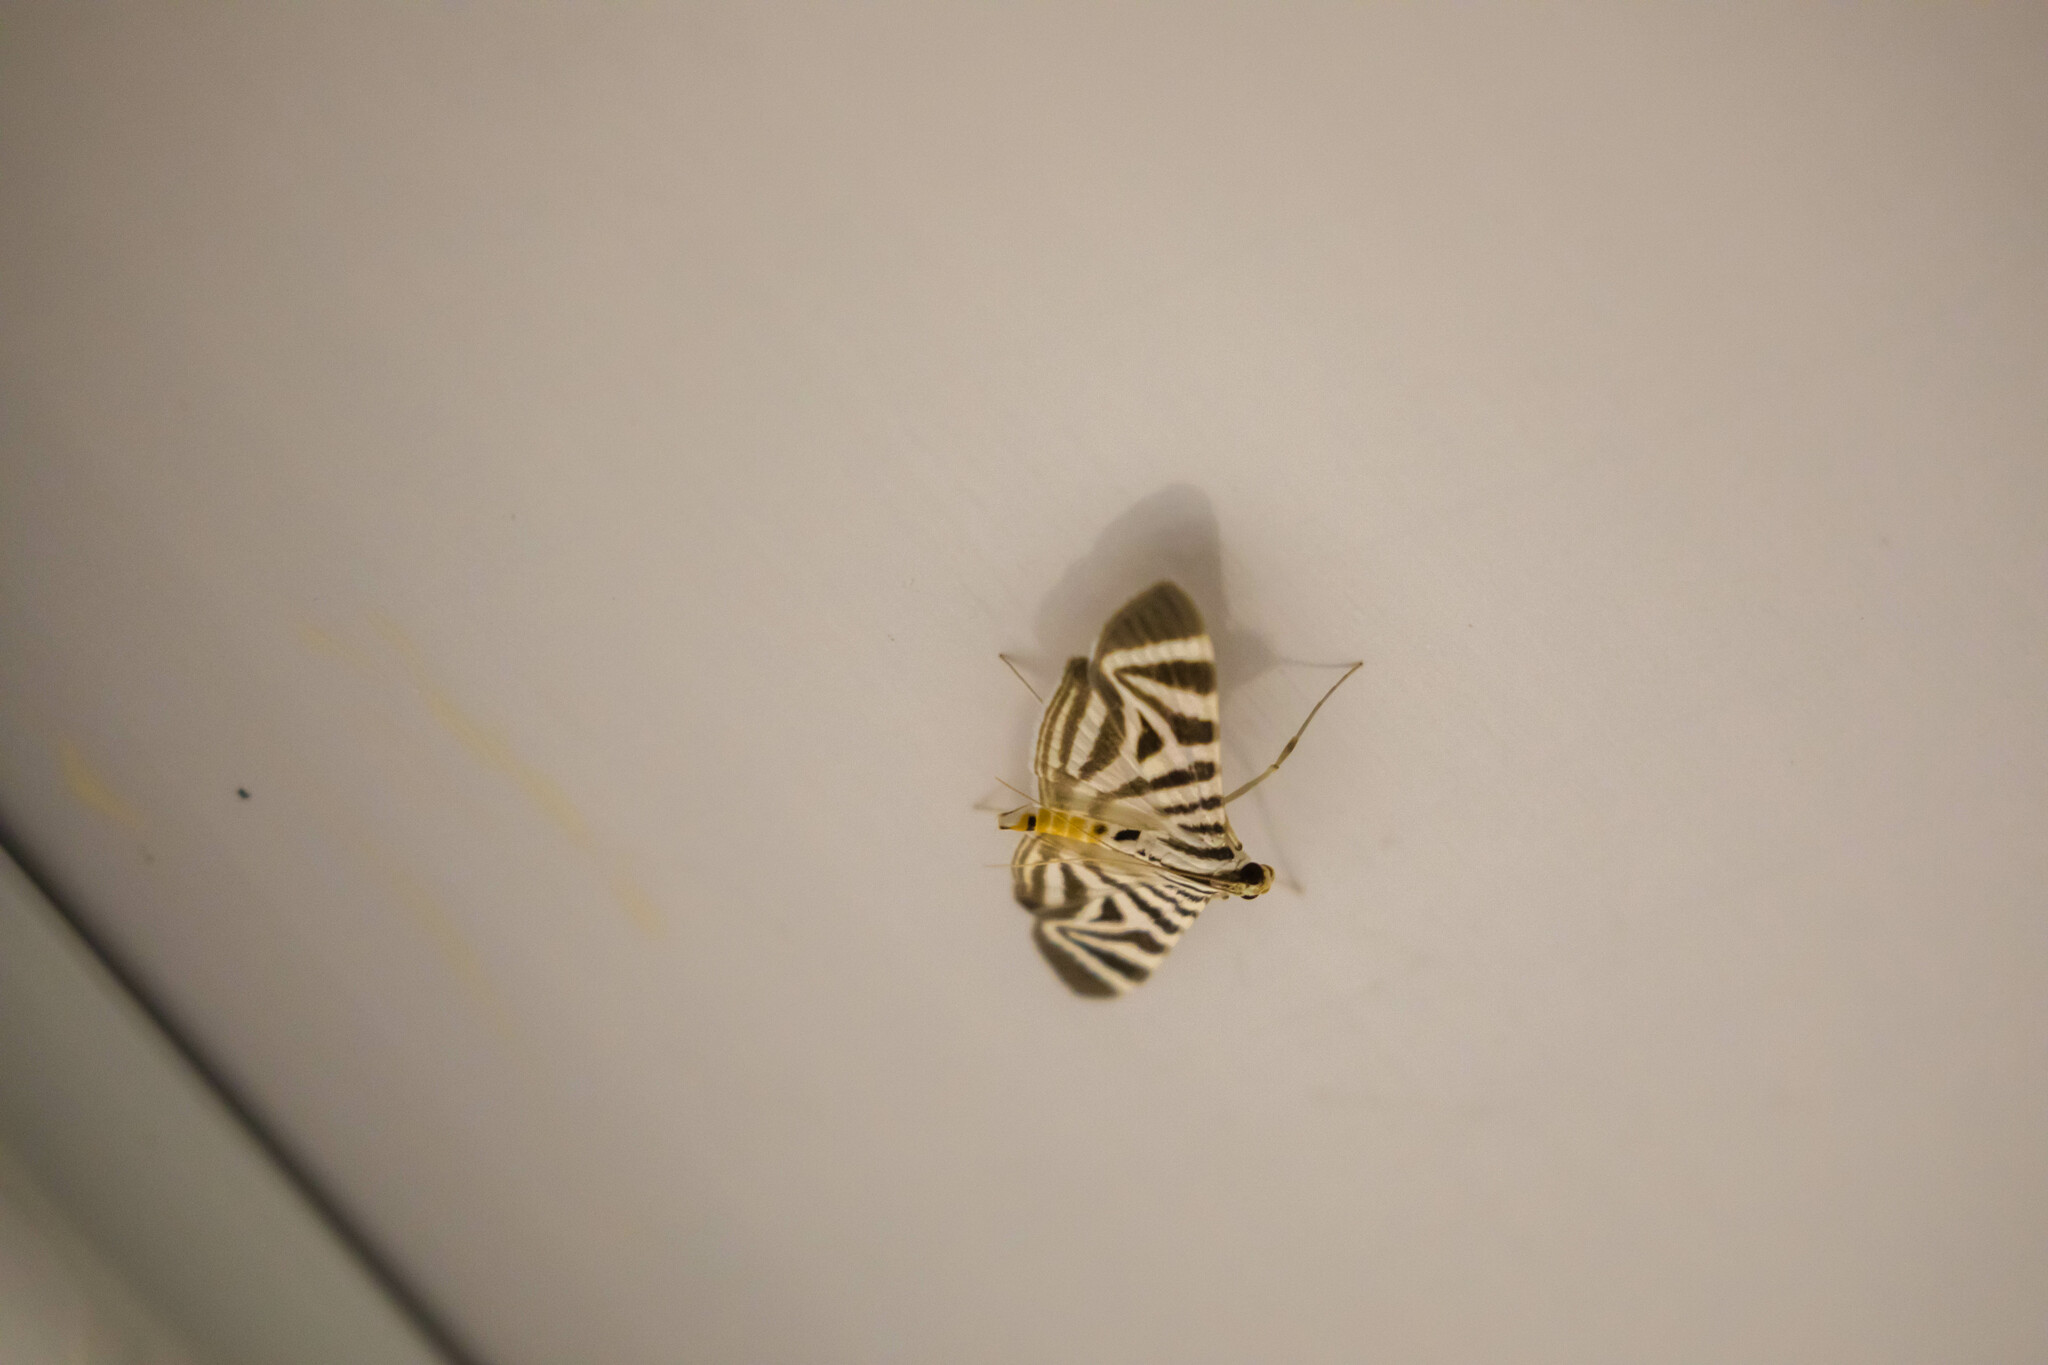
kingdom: Animalia
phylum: Arthropoda
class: Insecta
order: Lepidoptera
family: Crambidae
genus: Zebronia
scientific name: Zebronia Spilomela perspicata
